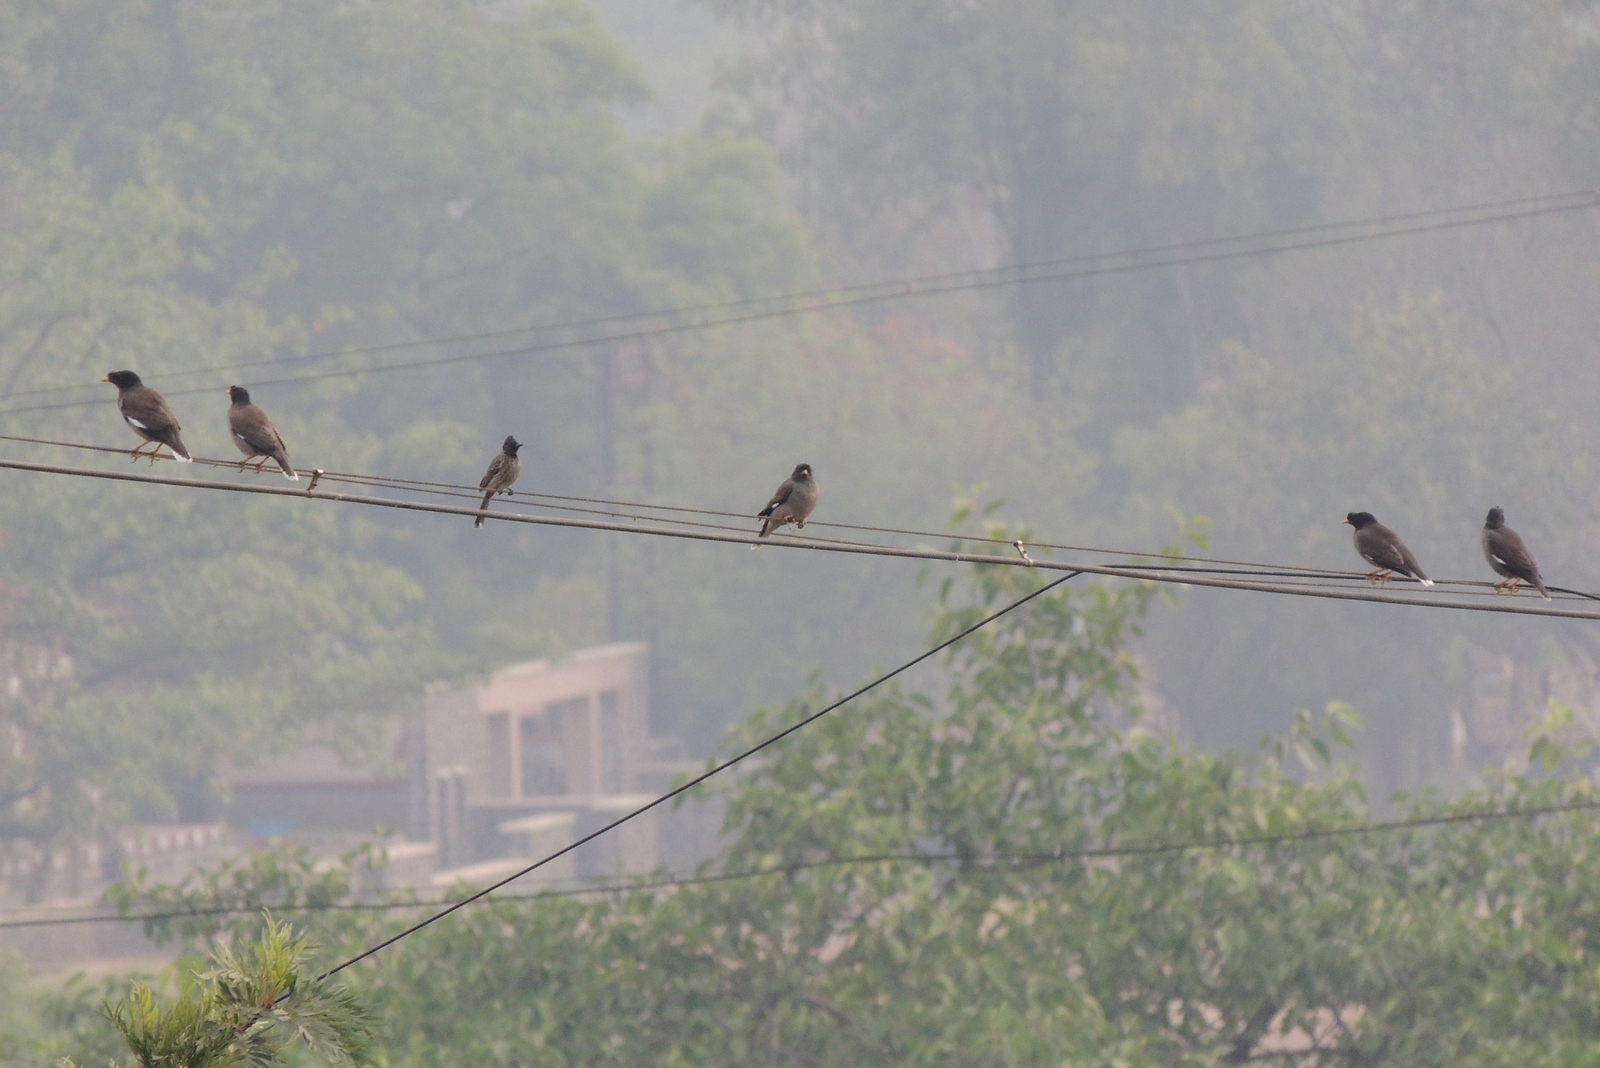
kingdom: Animalia
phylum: Chordata
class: Aves
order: Passeriformes
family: Pycnonotidae
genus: Pycnonotus
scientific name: Pycnonotus cafer
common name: Red-vented bulbul
